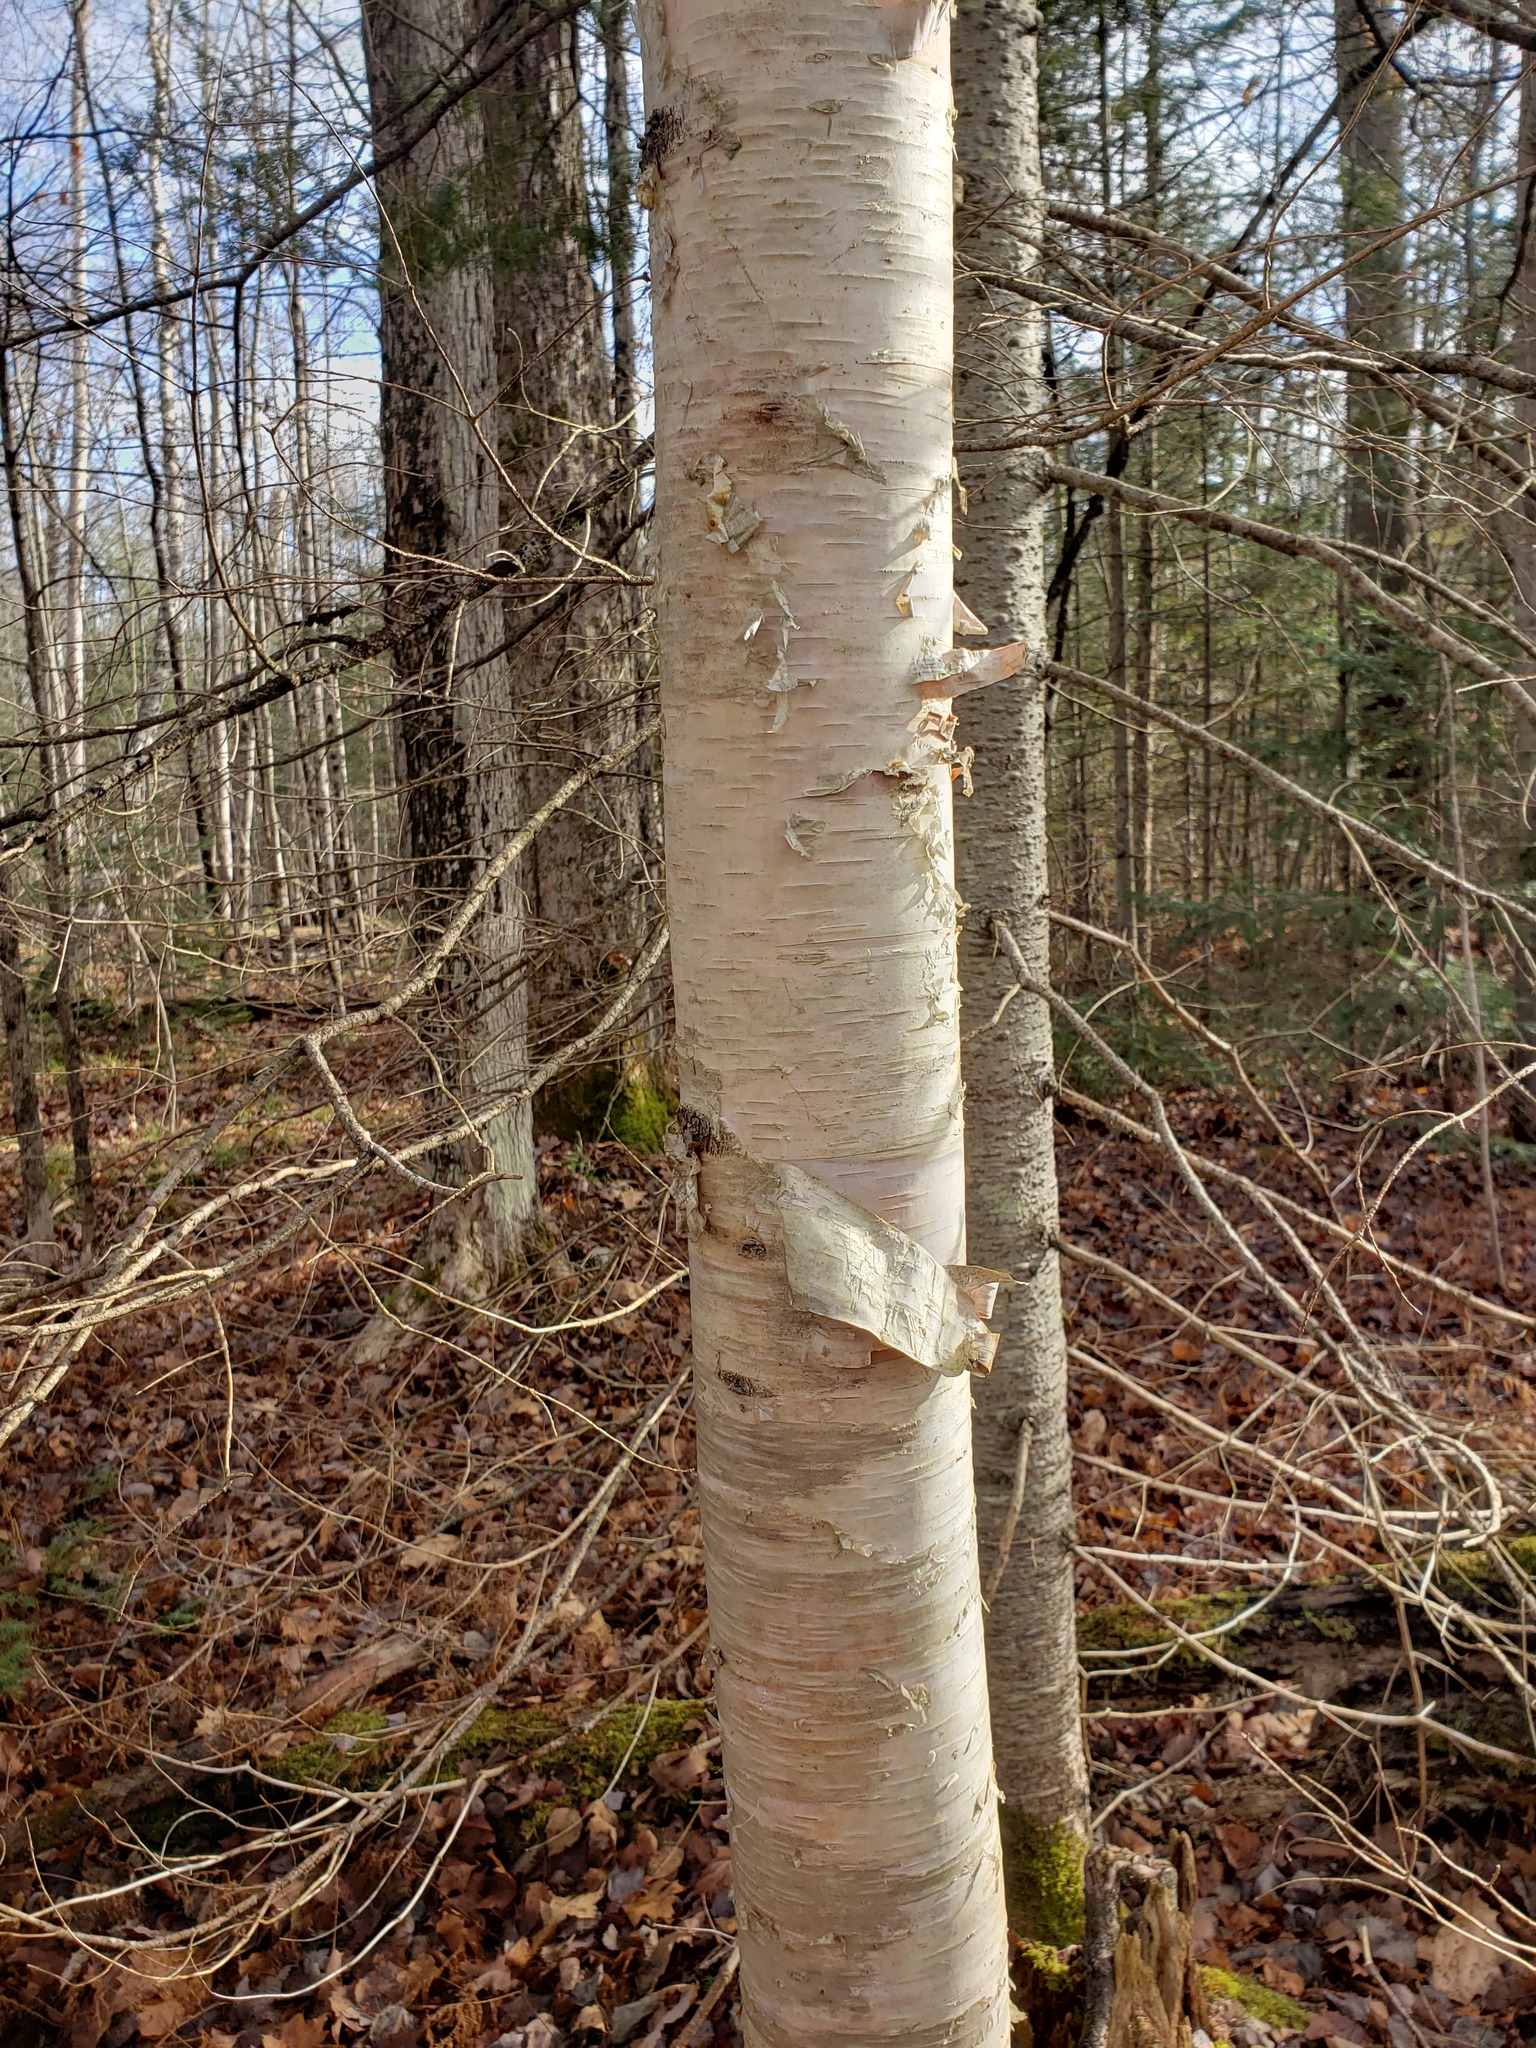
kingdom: Plantae
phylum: Tracheophyta
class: Magnoliopsida
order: Fagales
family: Betulaceae
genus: Betula
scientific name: Betula papyrifera
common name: Paper birch
